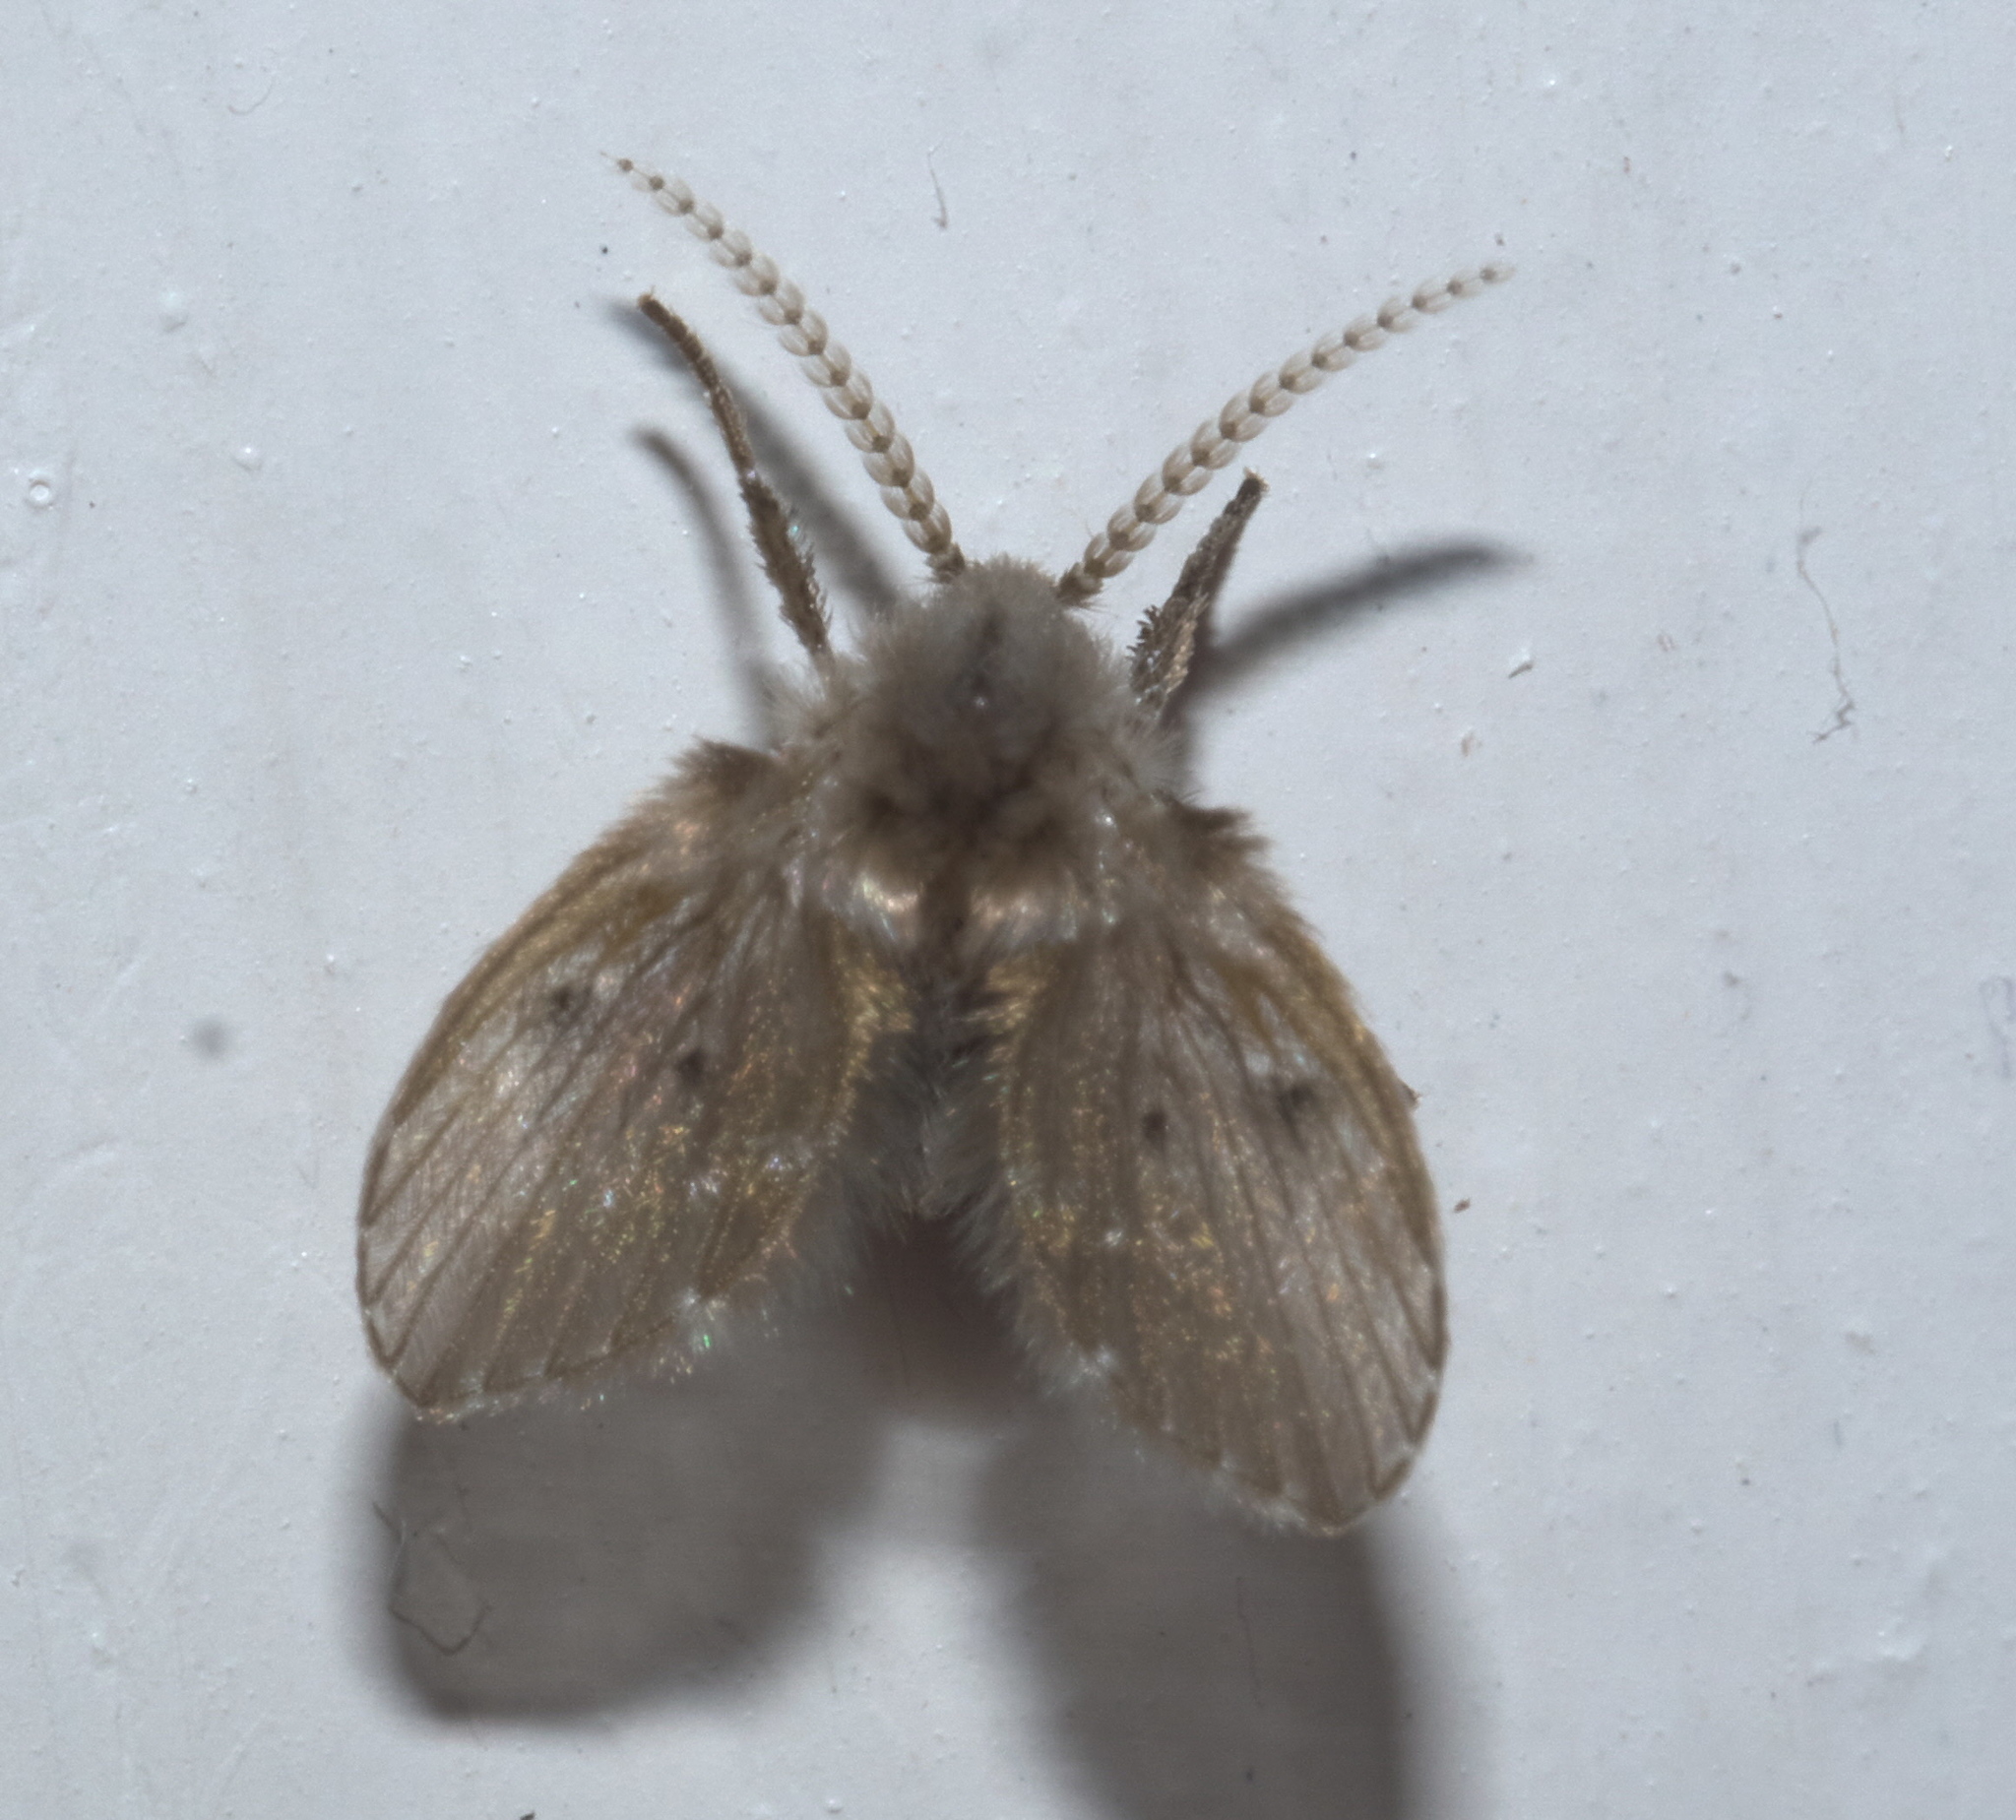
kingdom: Animalia
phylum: Arthropoda
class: Insecta
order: Diptera
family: Psychodidae
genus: Clogmia
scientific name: Clogmia albipunctatus
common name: White-spotted moth fly
